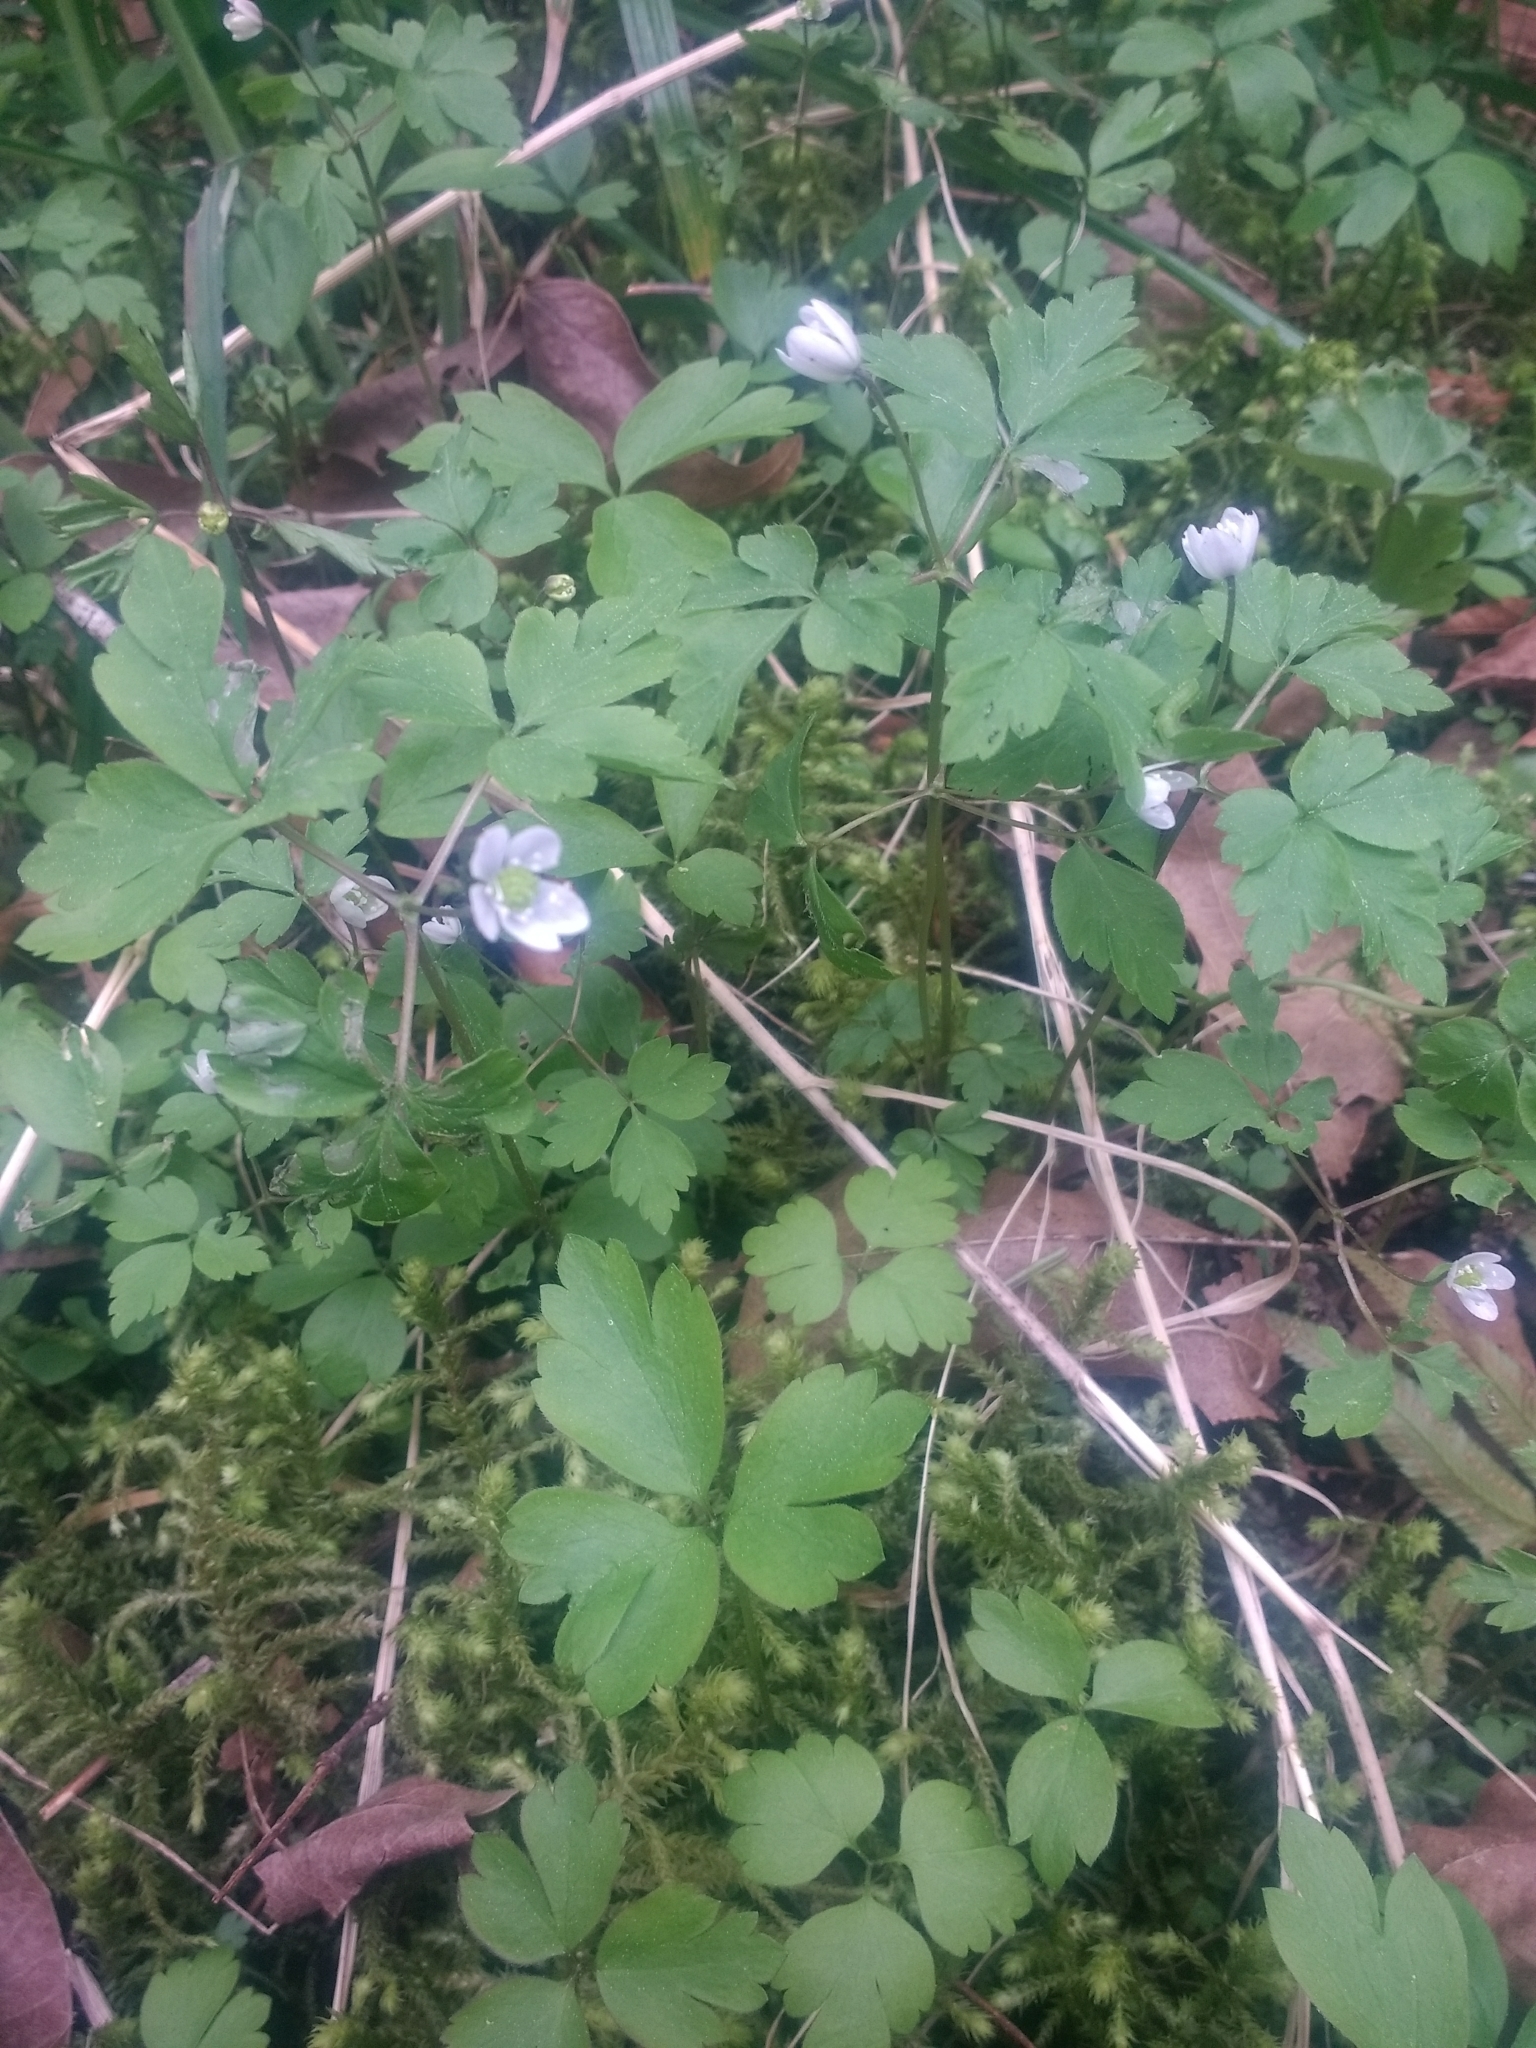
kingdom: Plantae
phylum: Tracheophyta
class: Magnoliopsida
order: Ranunculales
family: Ranunculaceae
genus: Anemone
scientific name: Anemone
